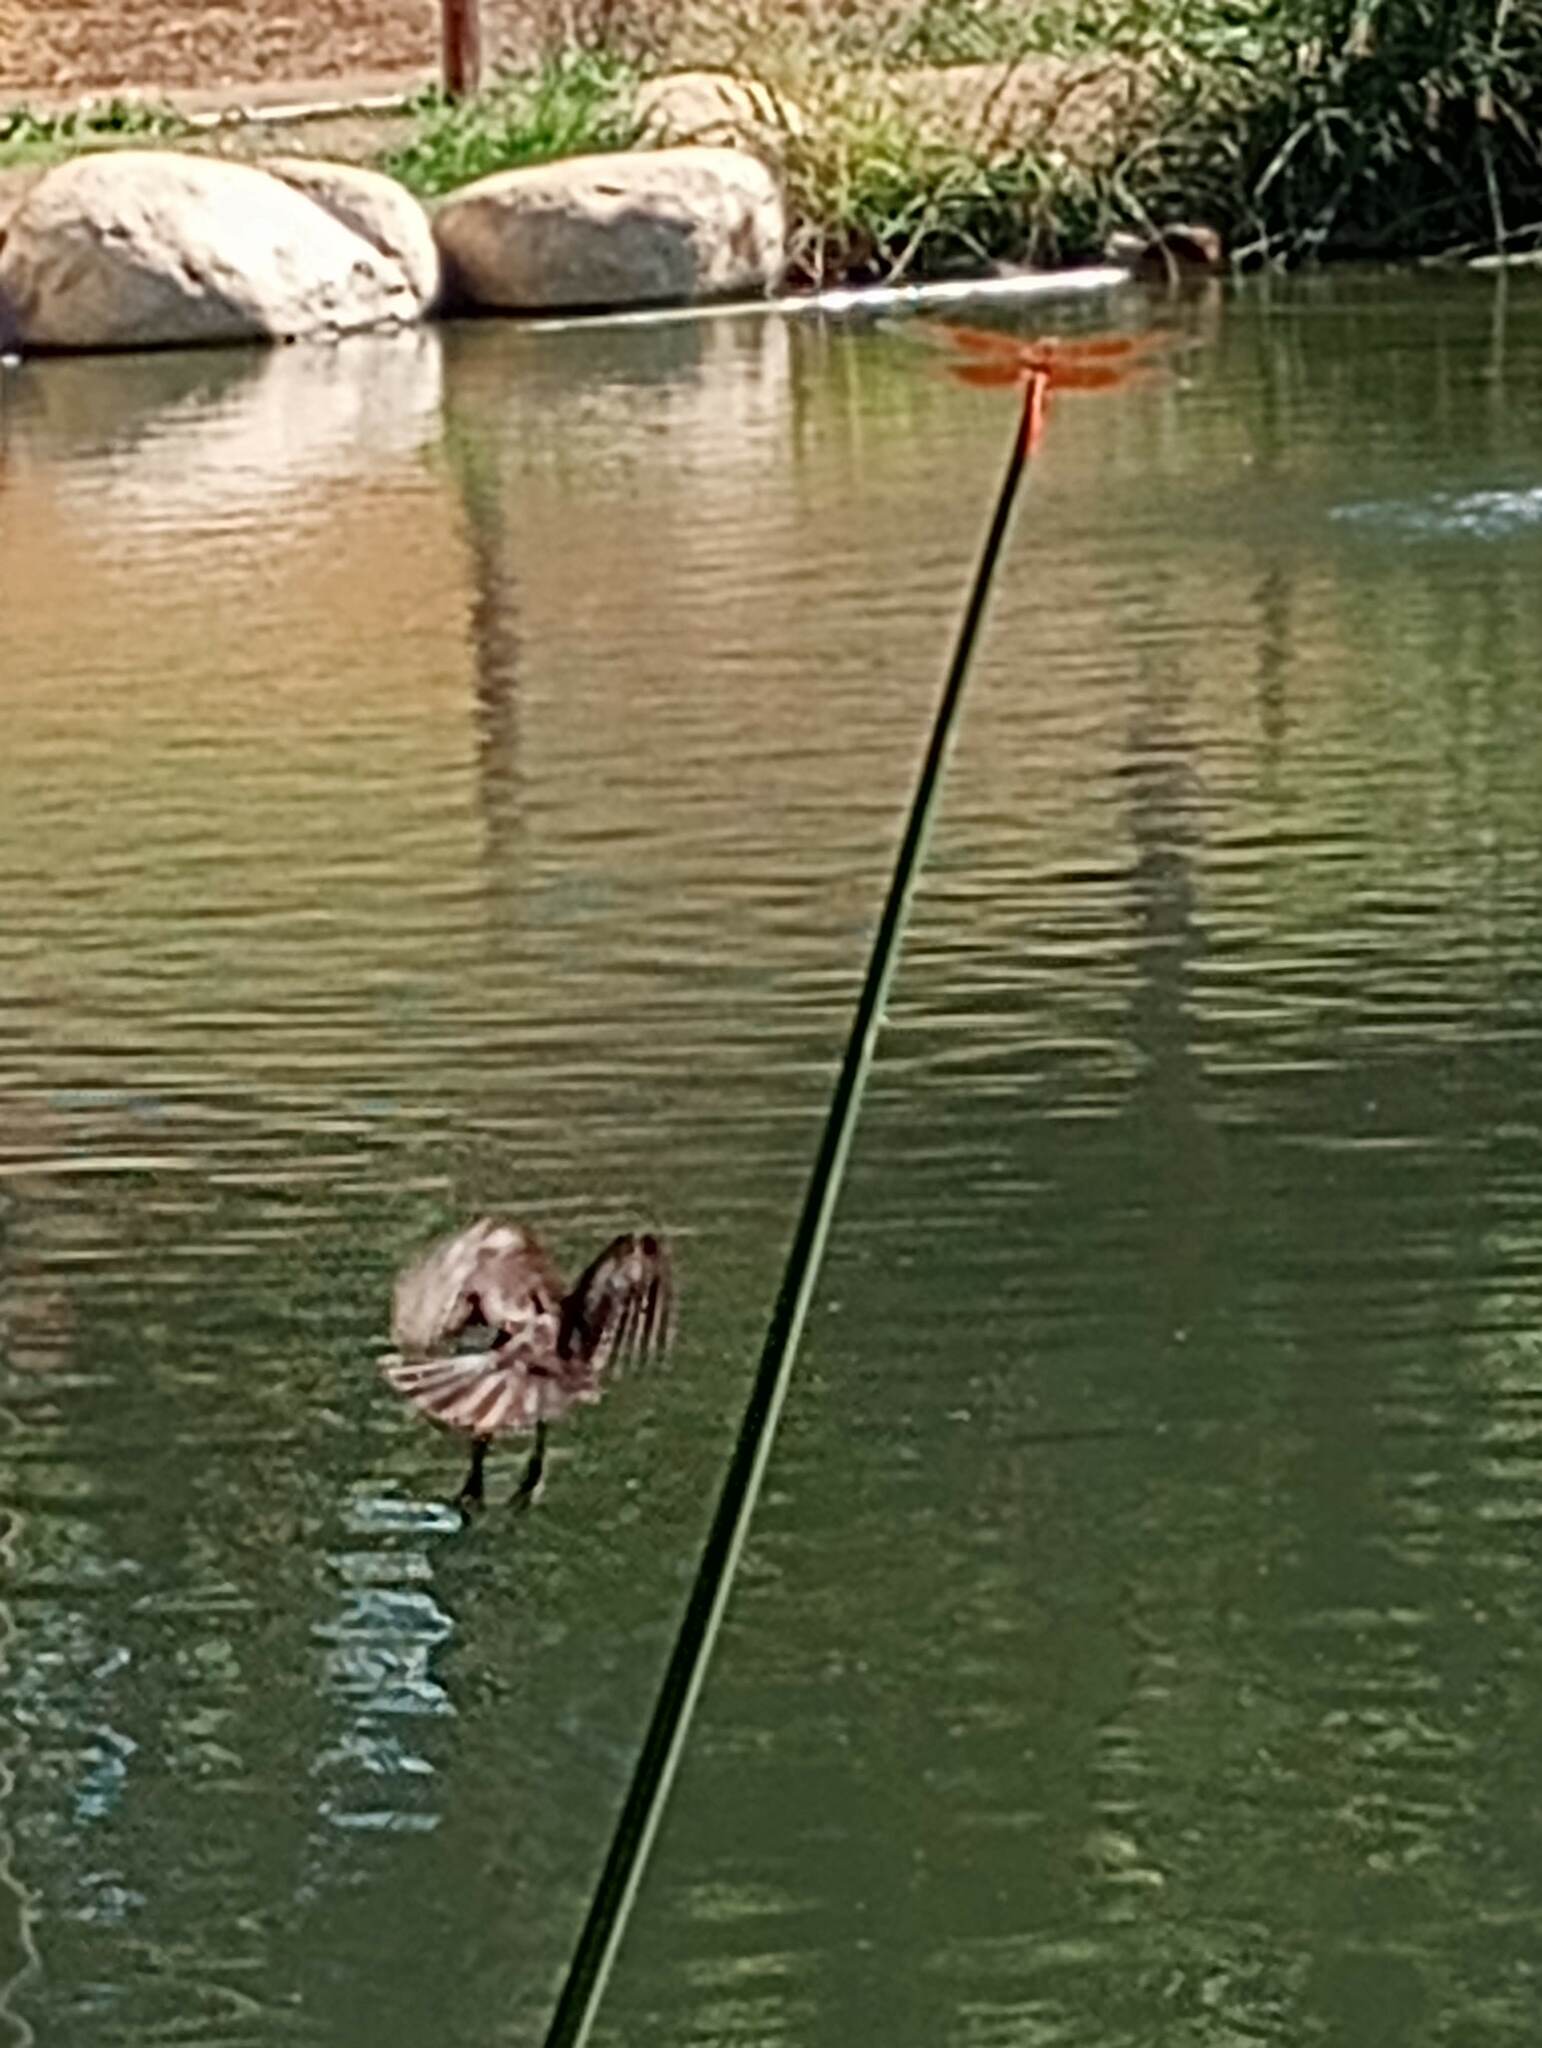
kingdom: Animalia
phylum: Arthropoda
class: Insecta
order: Odonata
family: Libellulidae
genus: Libellula
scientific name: Libellula saturata
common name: Flame skimmer
